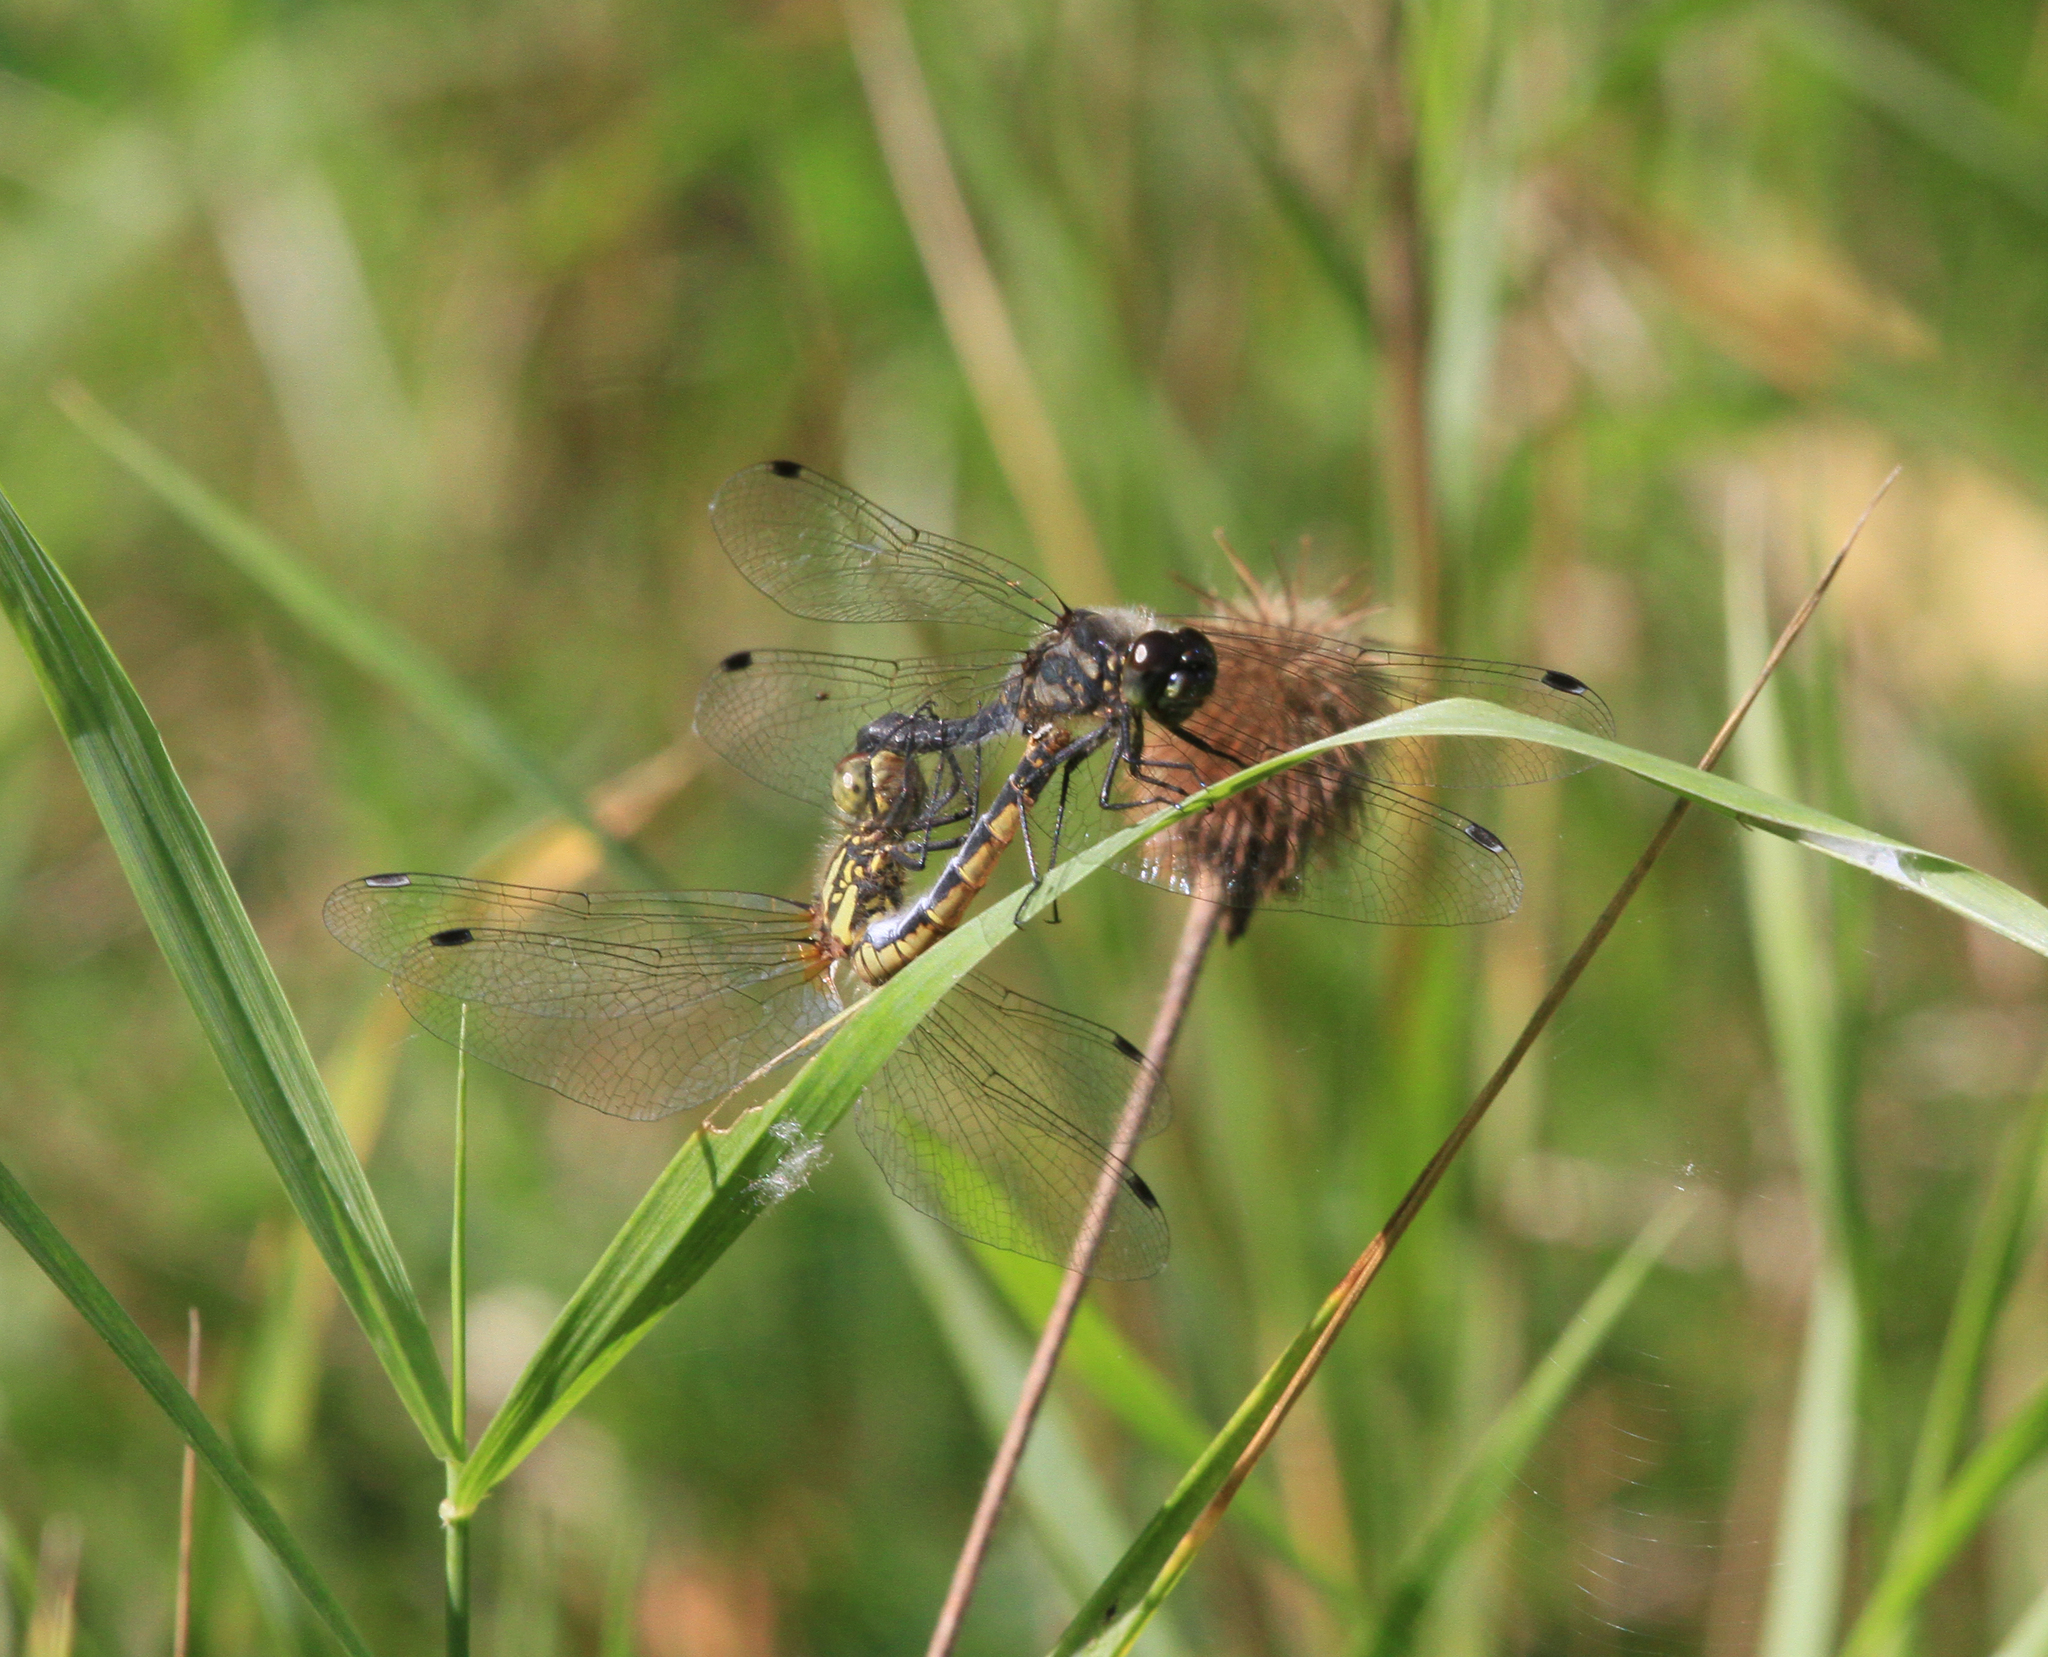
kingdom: Animalia
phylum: Arthropoda
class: Insecta
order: Odonata
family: Libellulidae
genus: Sympetrum
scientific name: Sympetrum danae
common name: Black darter
